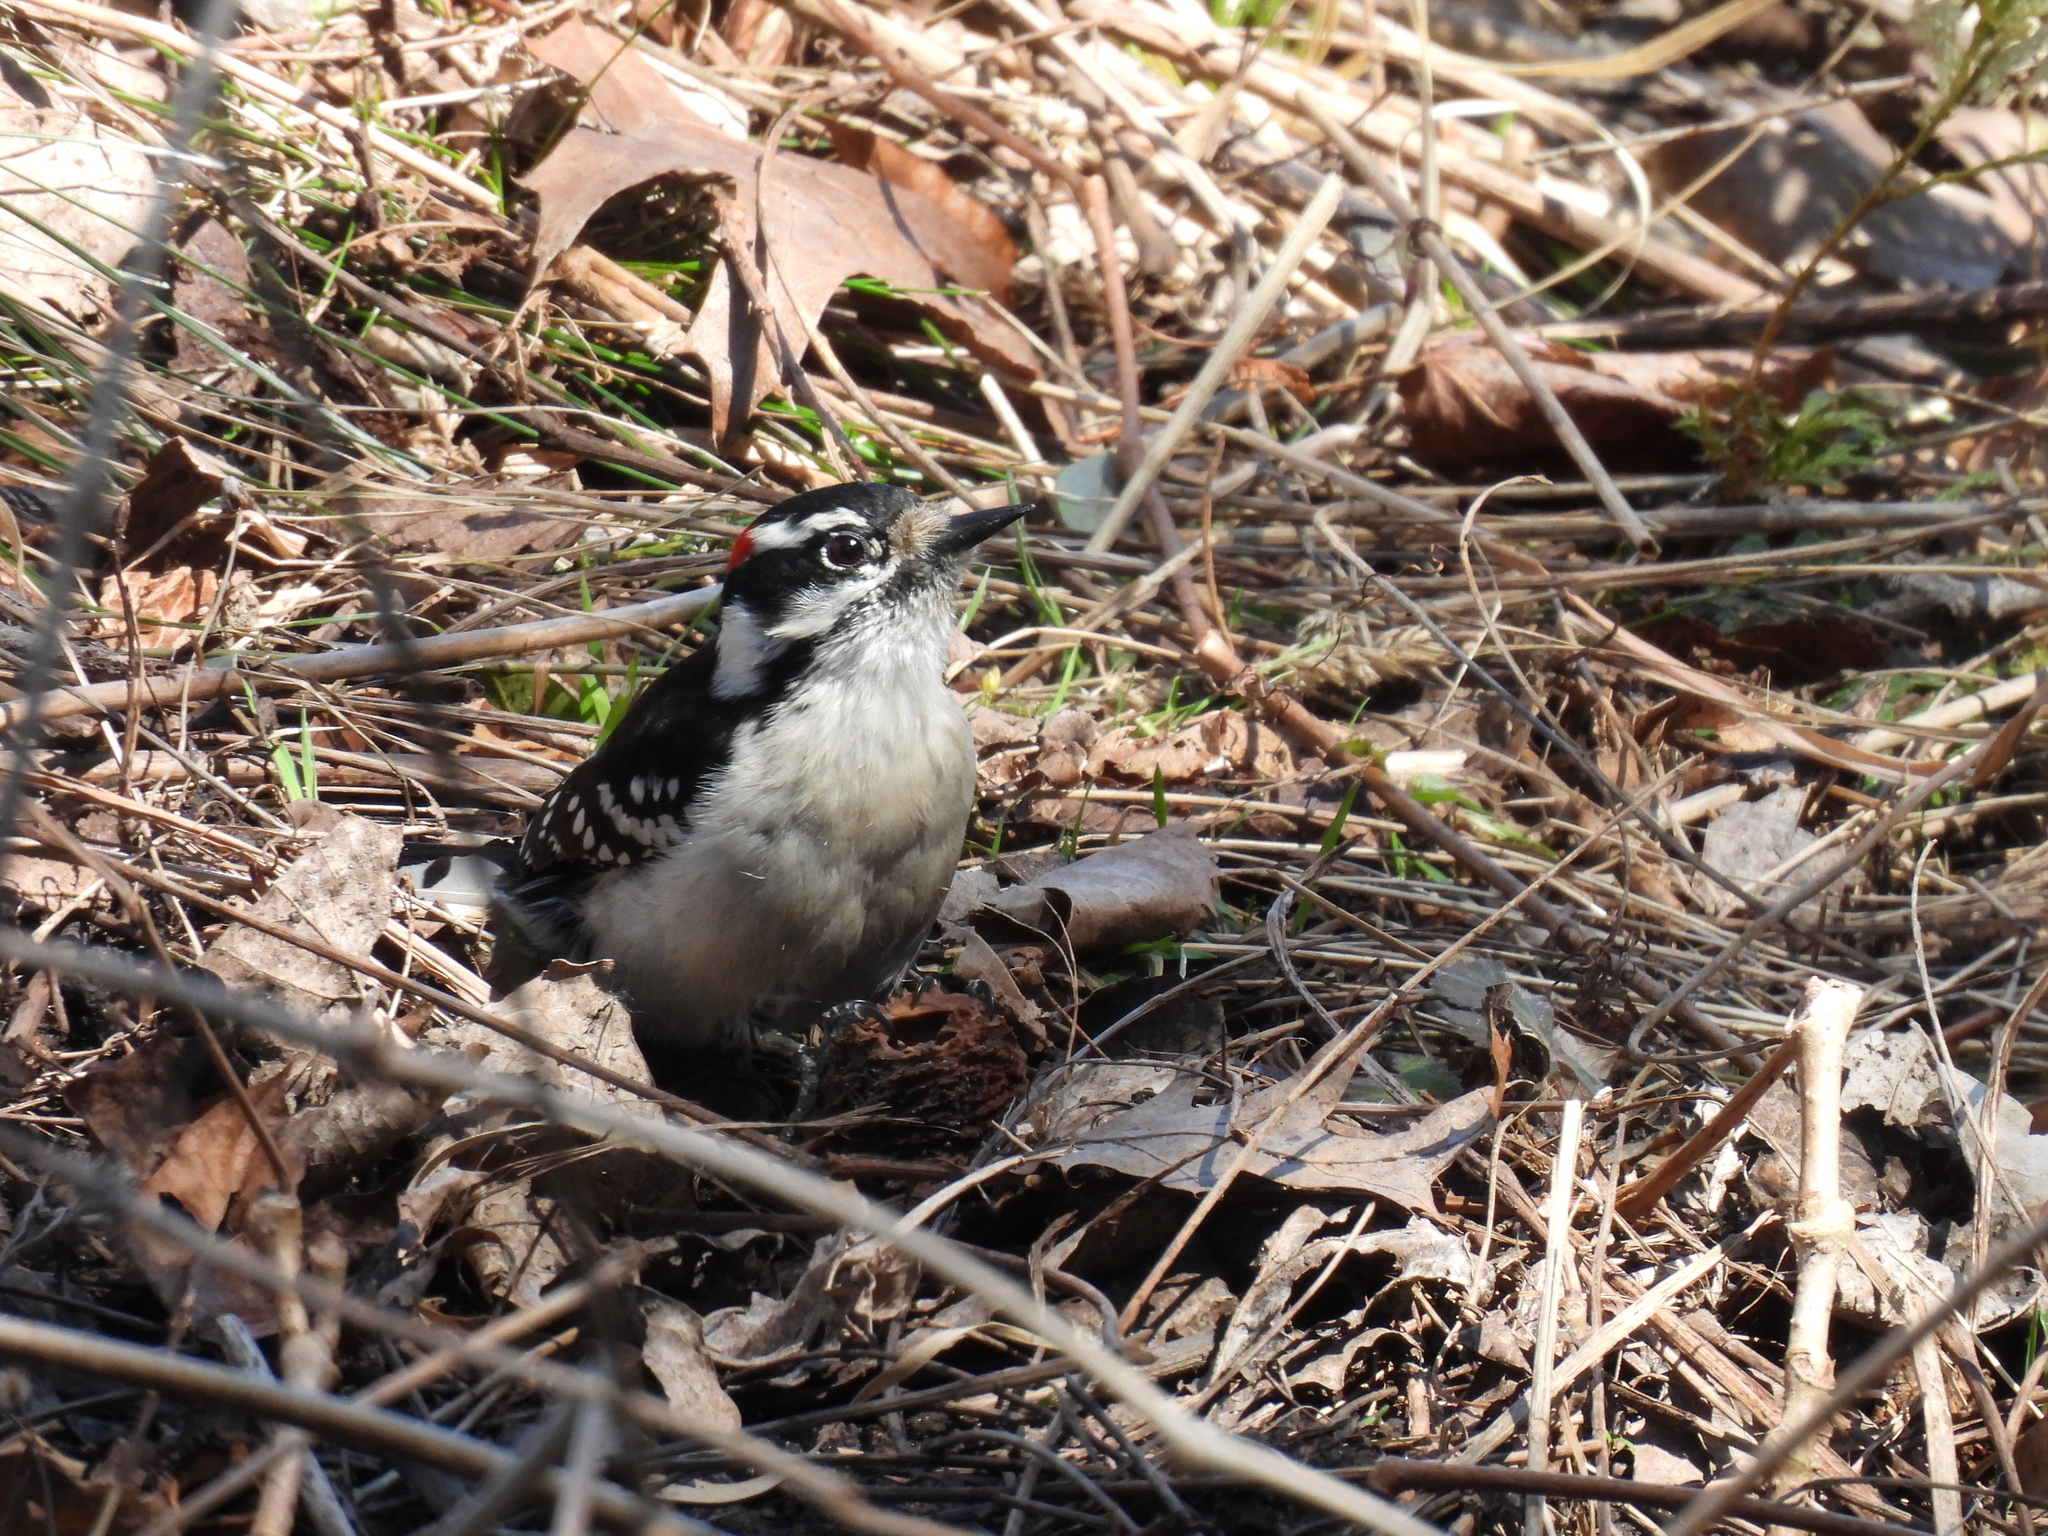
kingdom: Animalia
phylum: Chordata
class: Aves
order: Piciformes
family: Picidae
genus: Dryobates
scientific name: Dryobates pubescens
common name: Downy woodpecker
